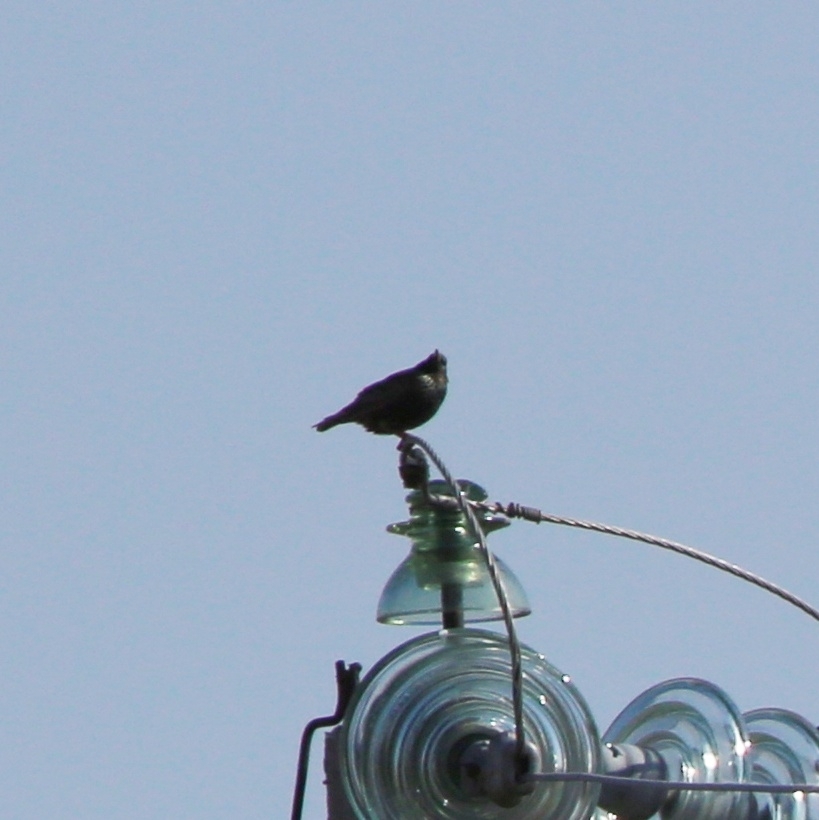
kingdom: Animalia
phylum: Chordata
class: Aves
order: Passeriformes
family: Sturnidae
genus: Sturnus
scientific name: Sturnus vulgaris
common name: Common starling
